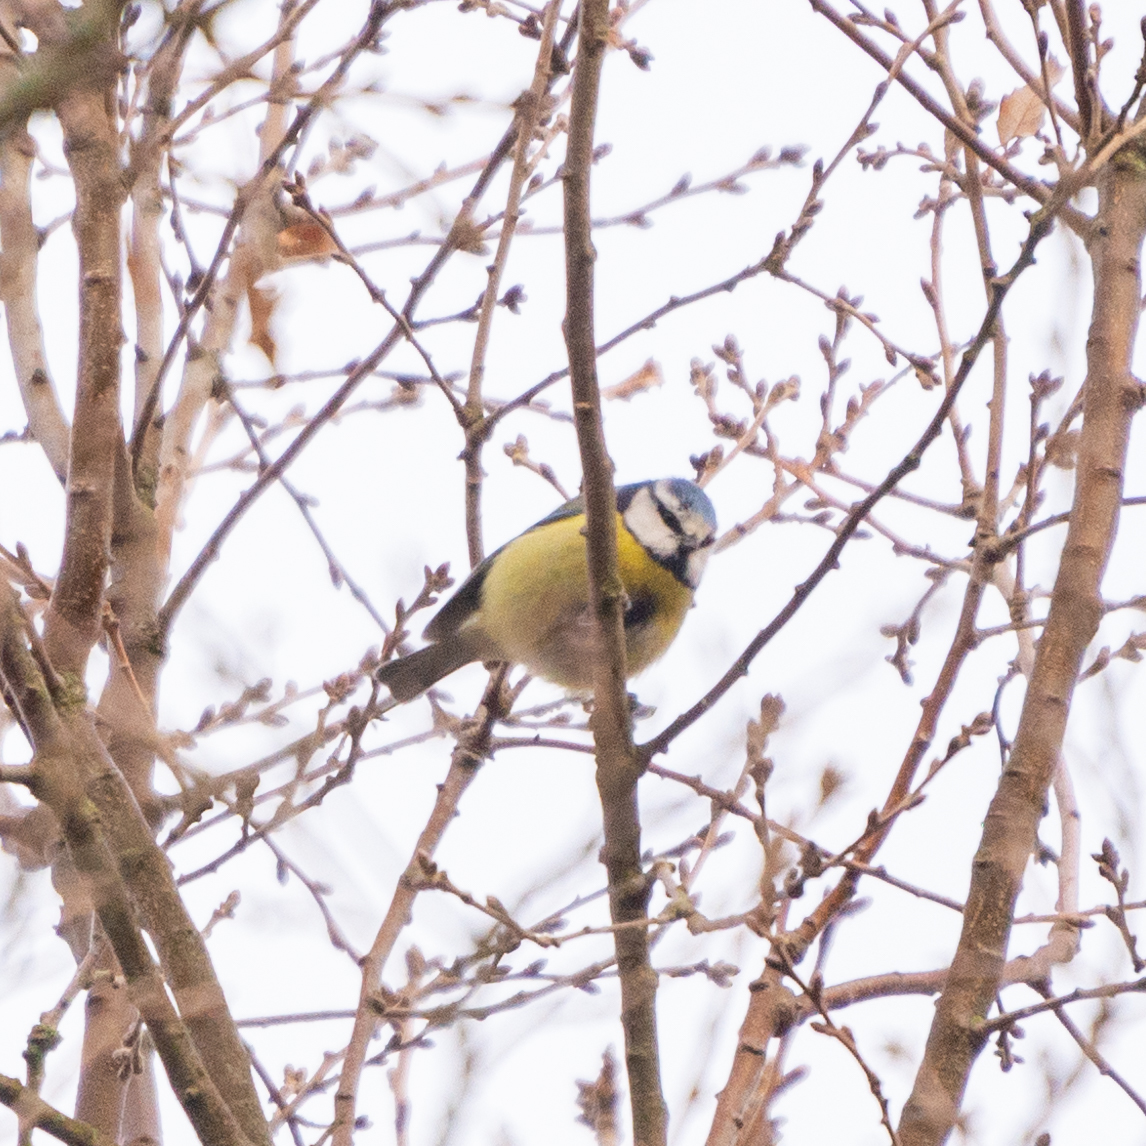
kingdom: Animalia
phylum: Chordata
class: Aves
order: Passeriformes
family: Paridae
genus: Cyanistes
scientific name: Cyanistes caeruleus
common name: Eurasian blue tit
